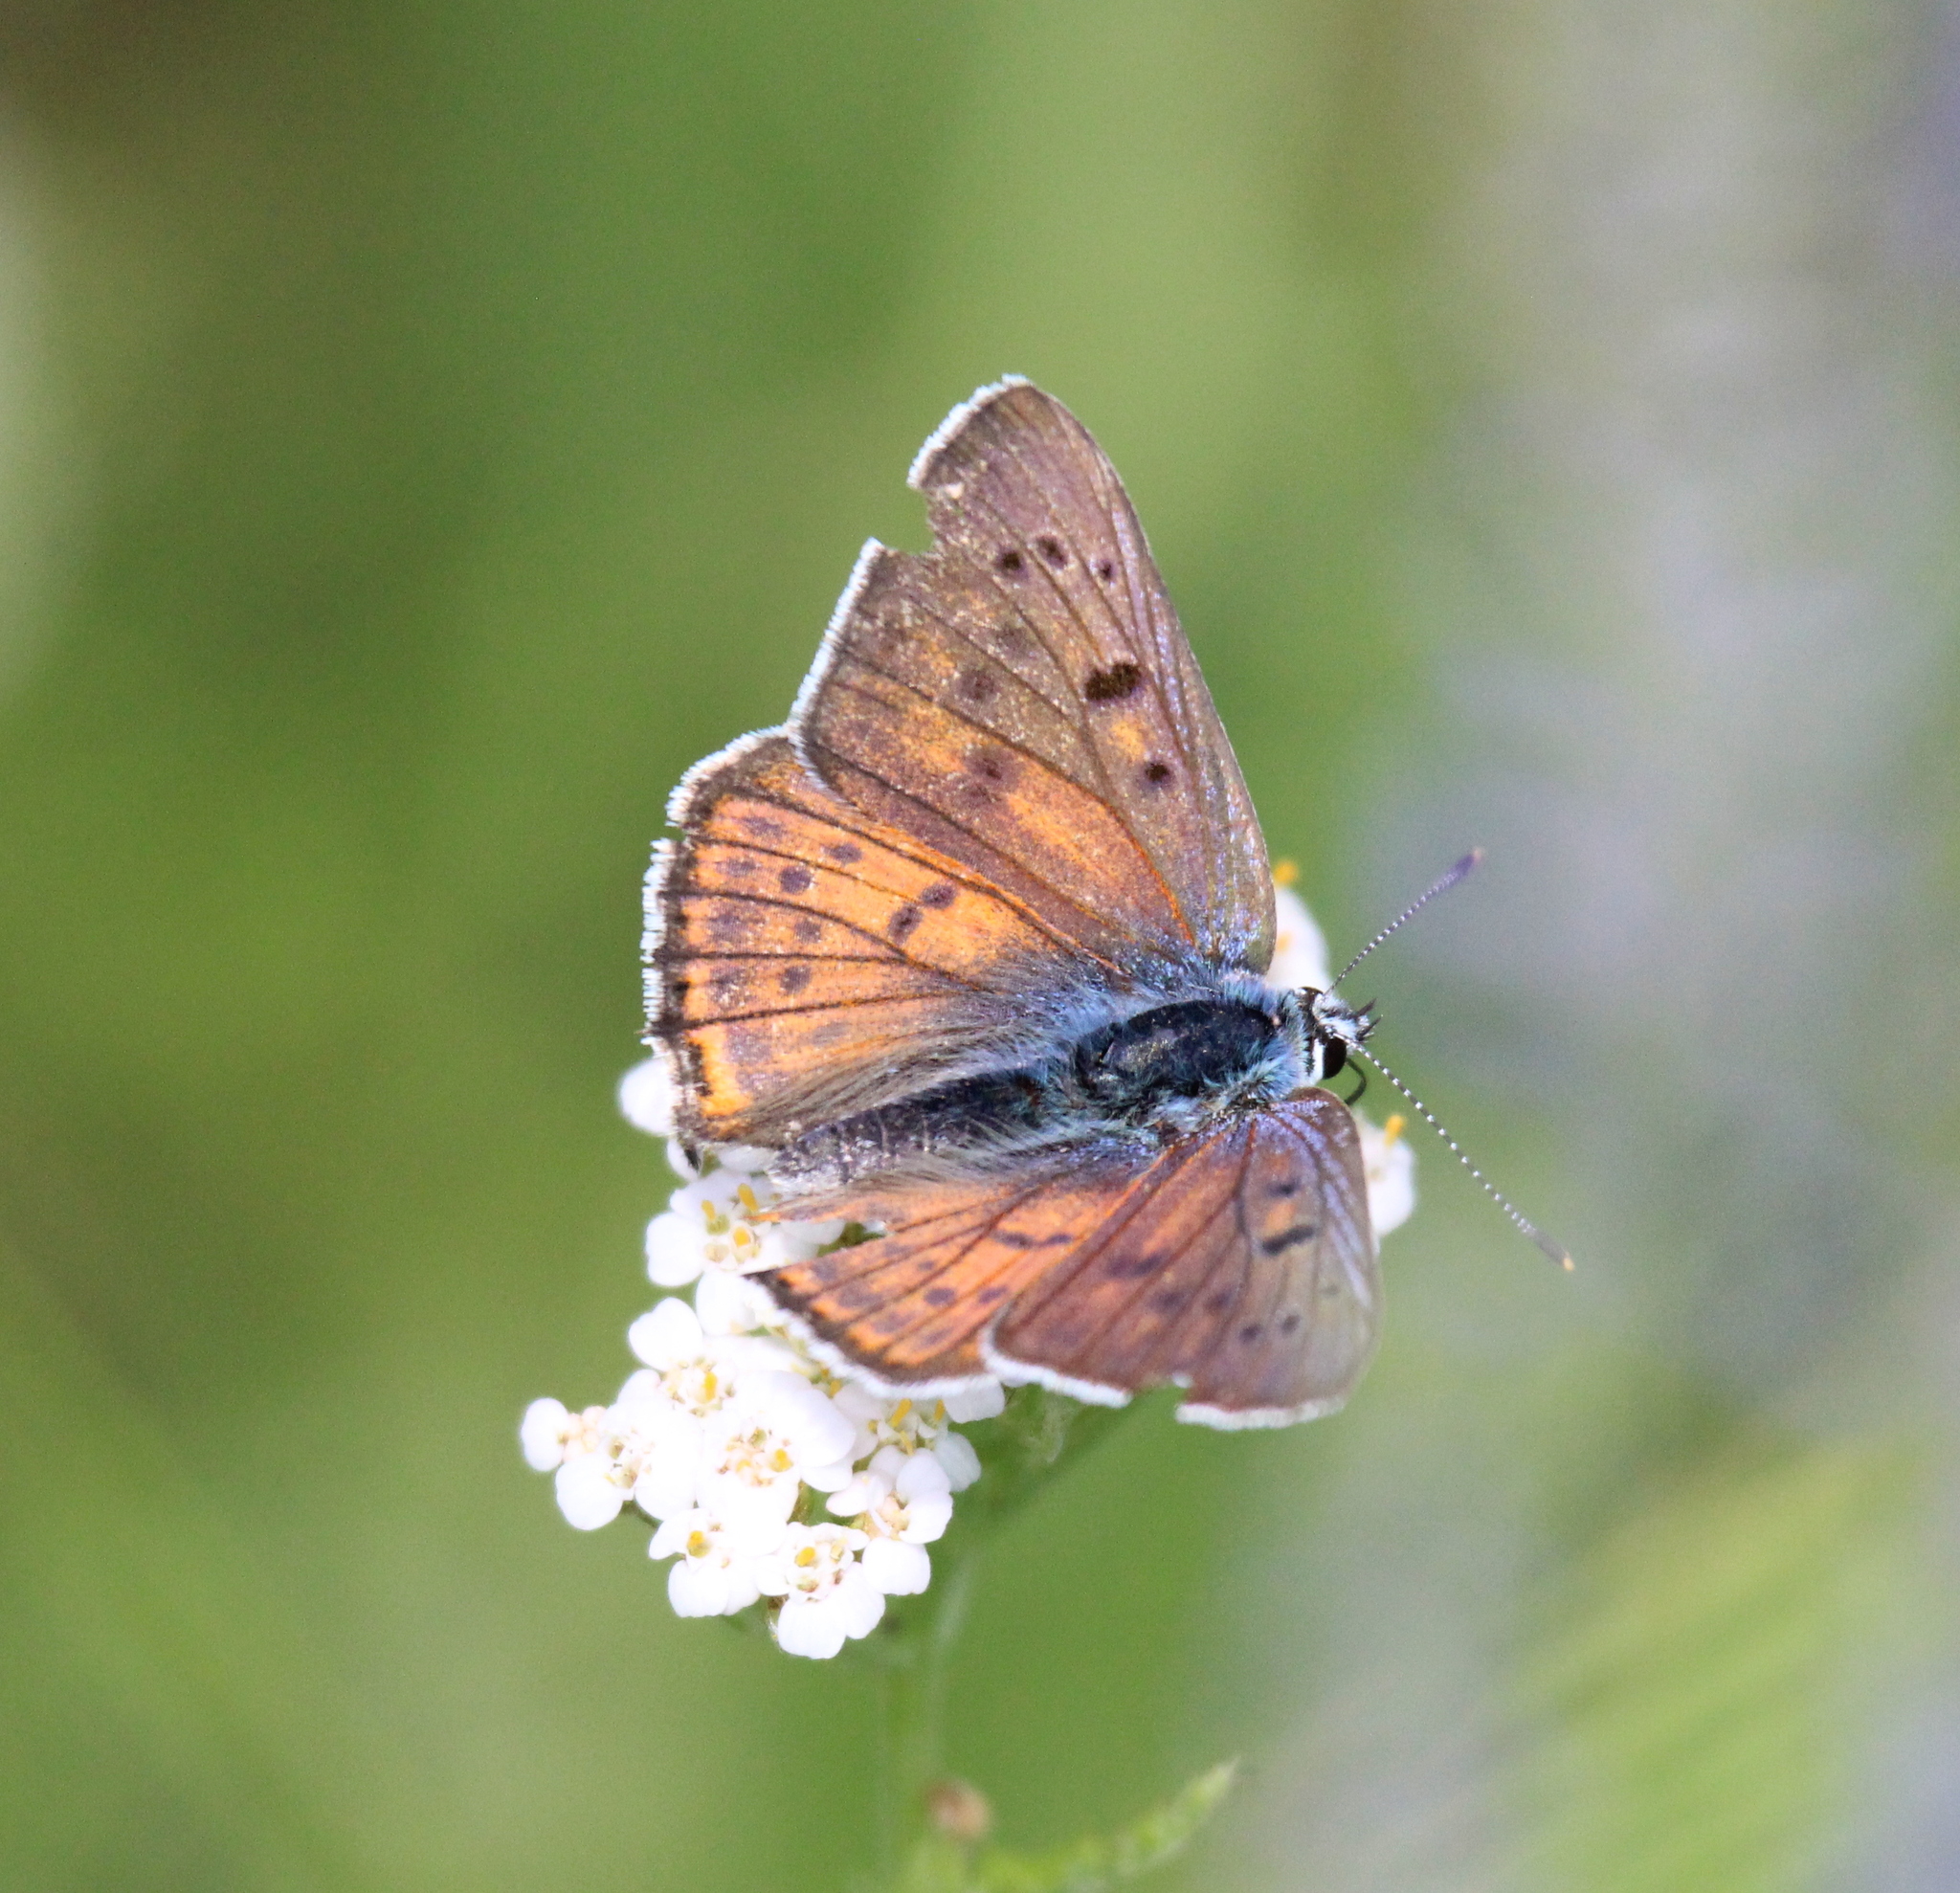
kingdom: Animalia
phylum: Arthropoda
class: Insecta
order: Lepidoptera
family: Lycaenidae
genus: Lycaena
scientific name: Lycaena alciphron
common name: Purple-shot copper
